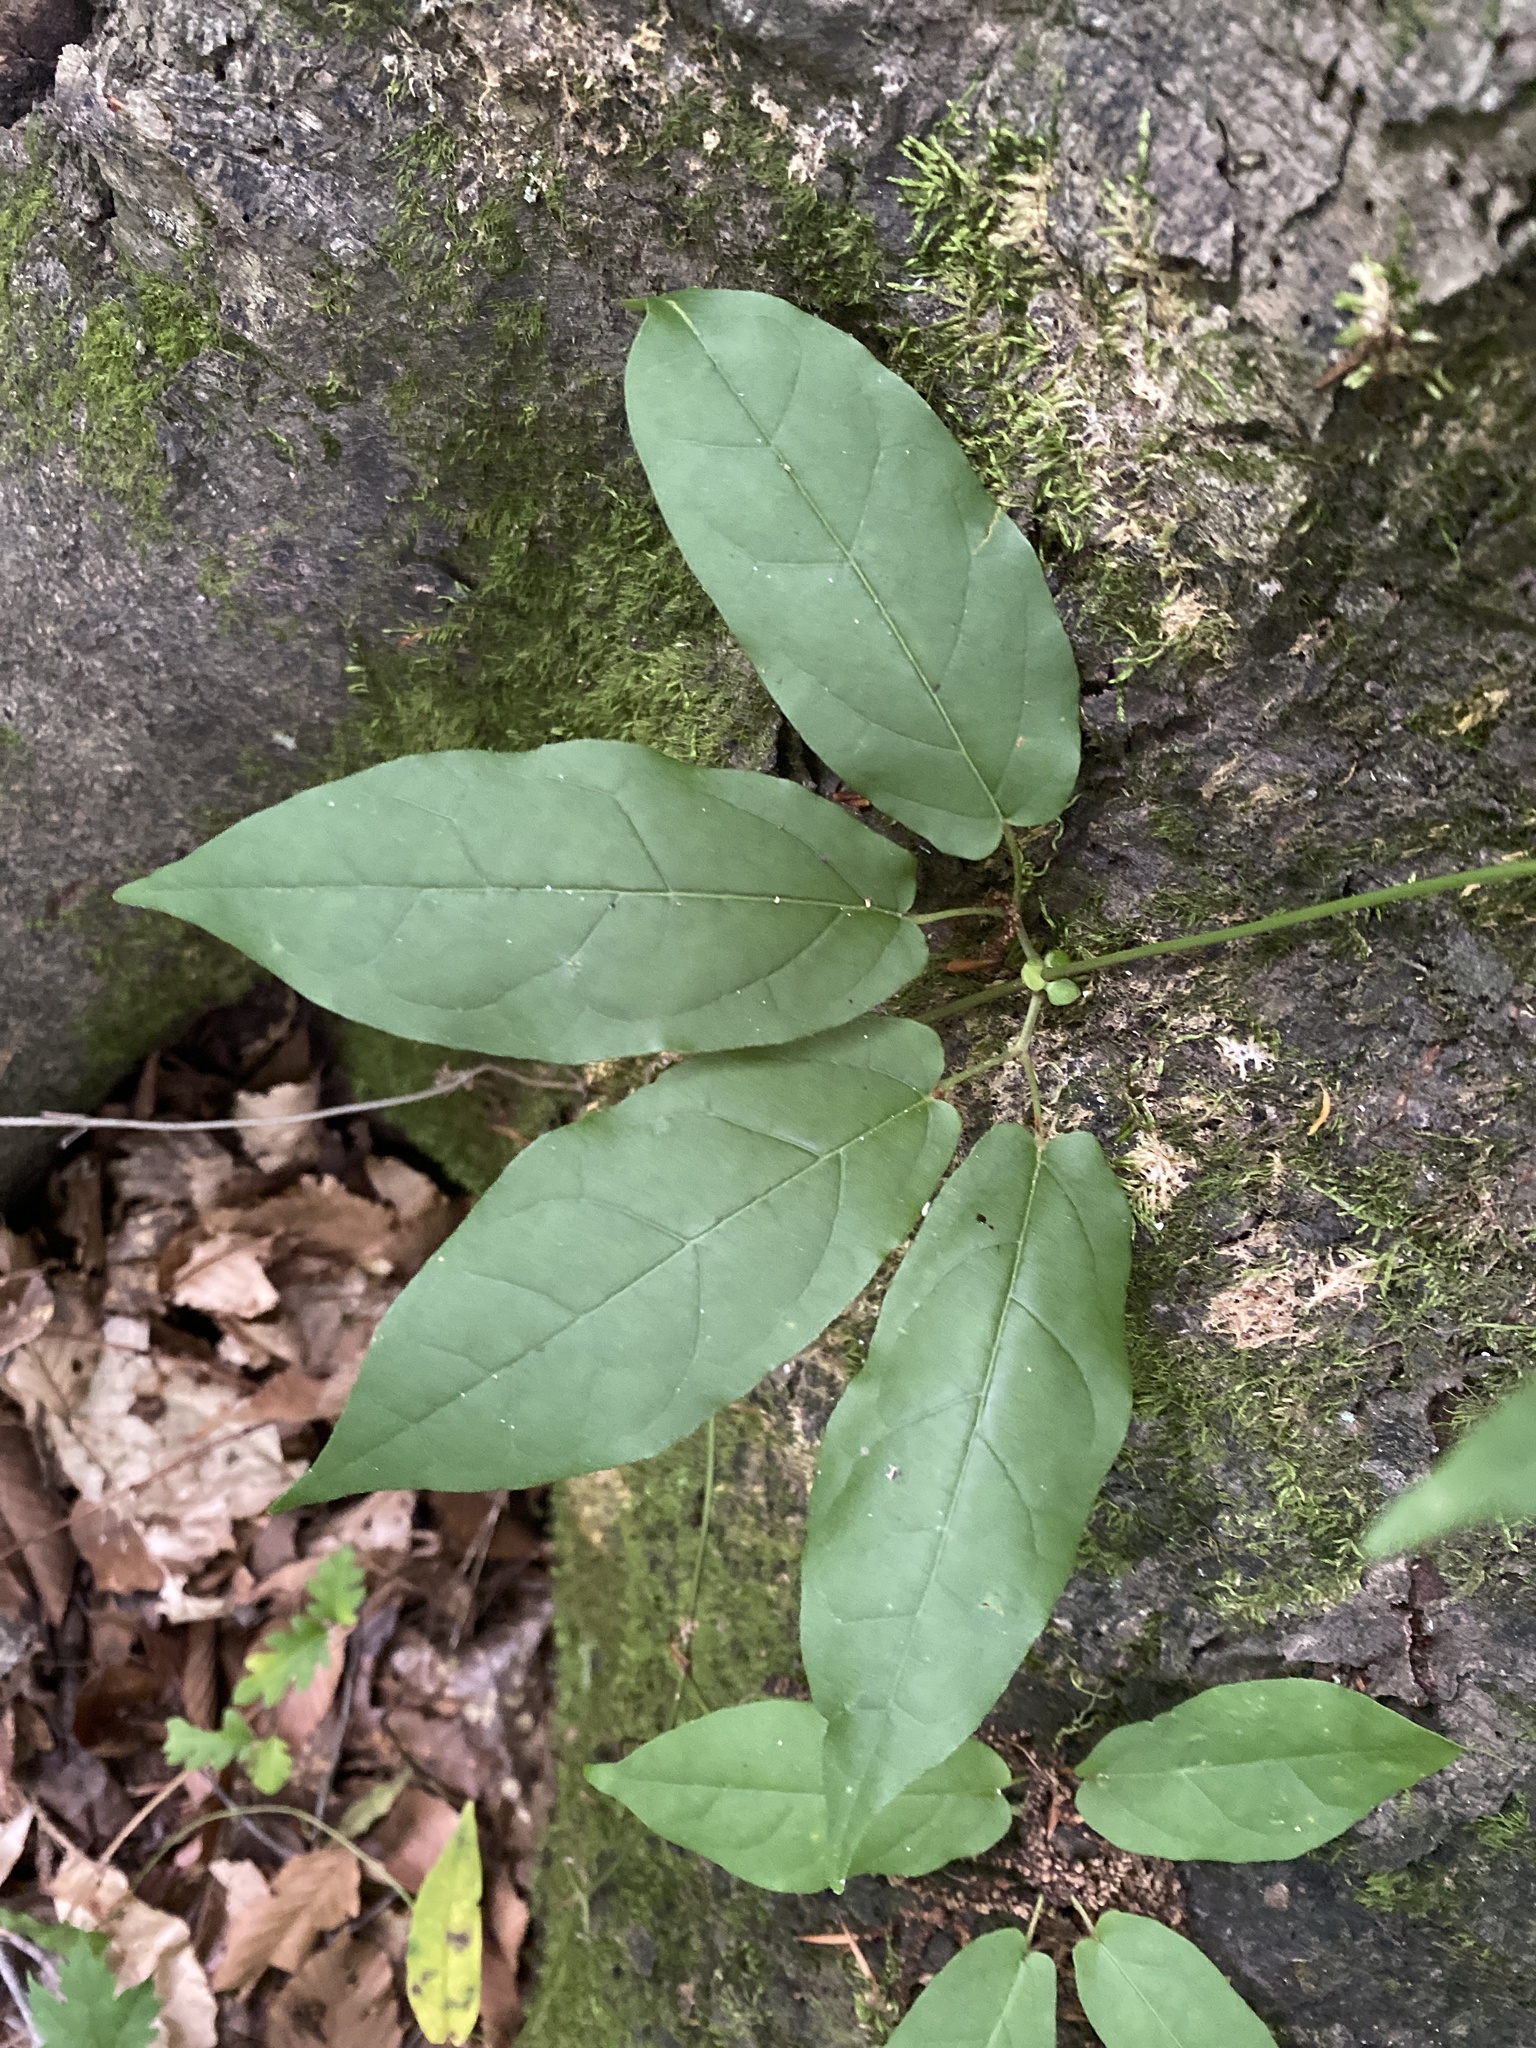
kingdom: Plantae
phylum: Tracheophyta
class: Magnoliopsida
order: Lamiales
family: Bignoniaceae
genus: Bignonia
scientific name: Bignonia capreolata
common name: Crossvine
